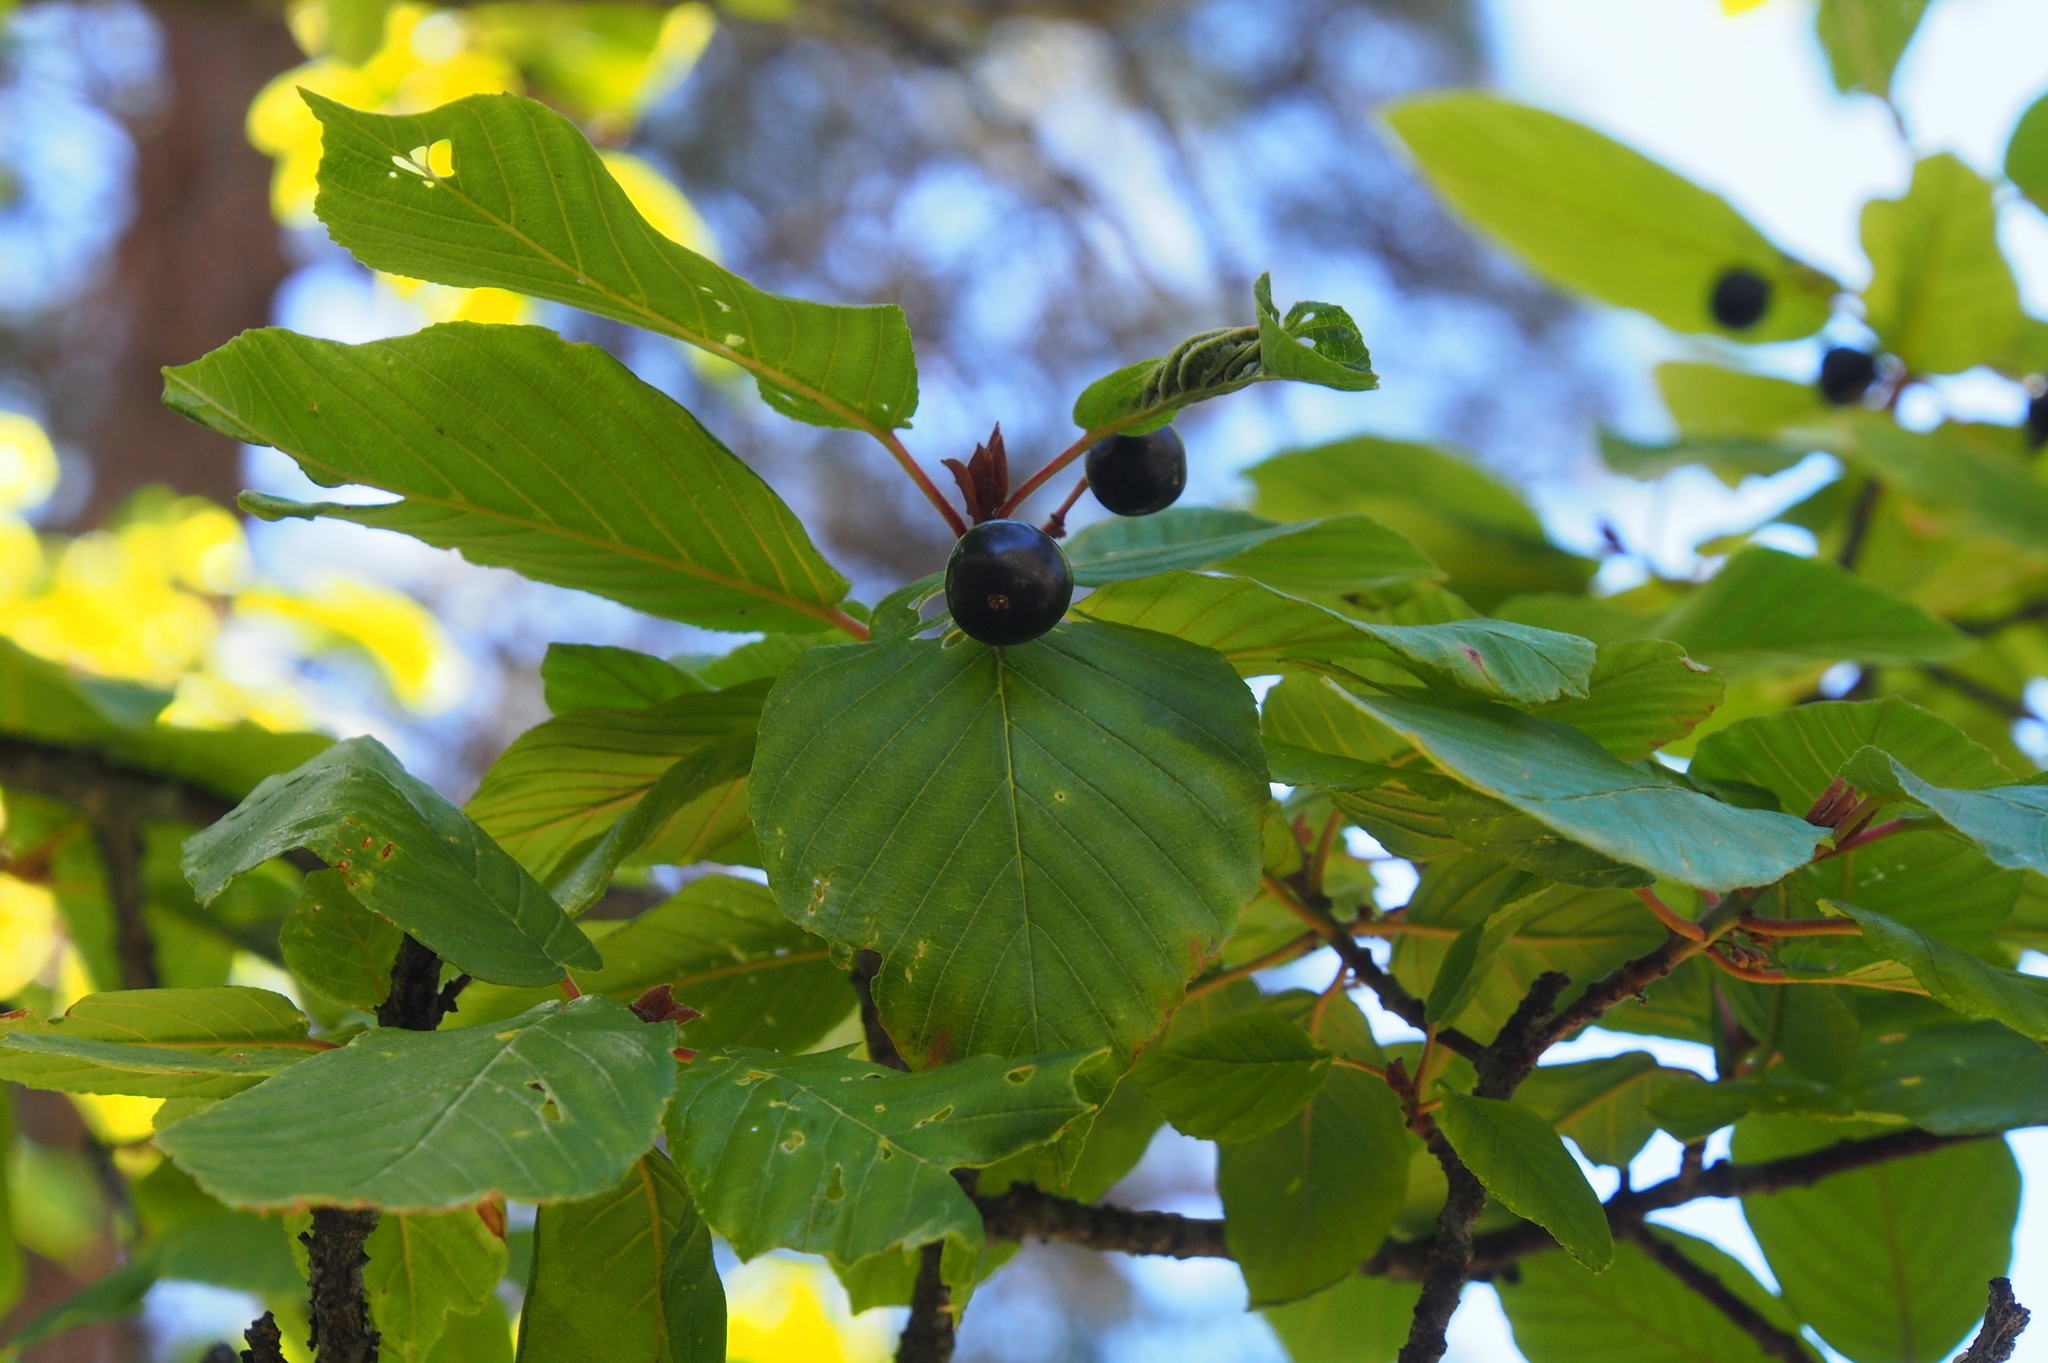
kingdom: Plantae
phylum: Tracheophyta
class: Magnoliopsida
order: Rosales
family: Rosaceae
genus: Amelanchier
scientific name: Amelanchier alnifolia
